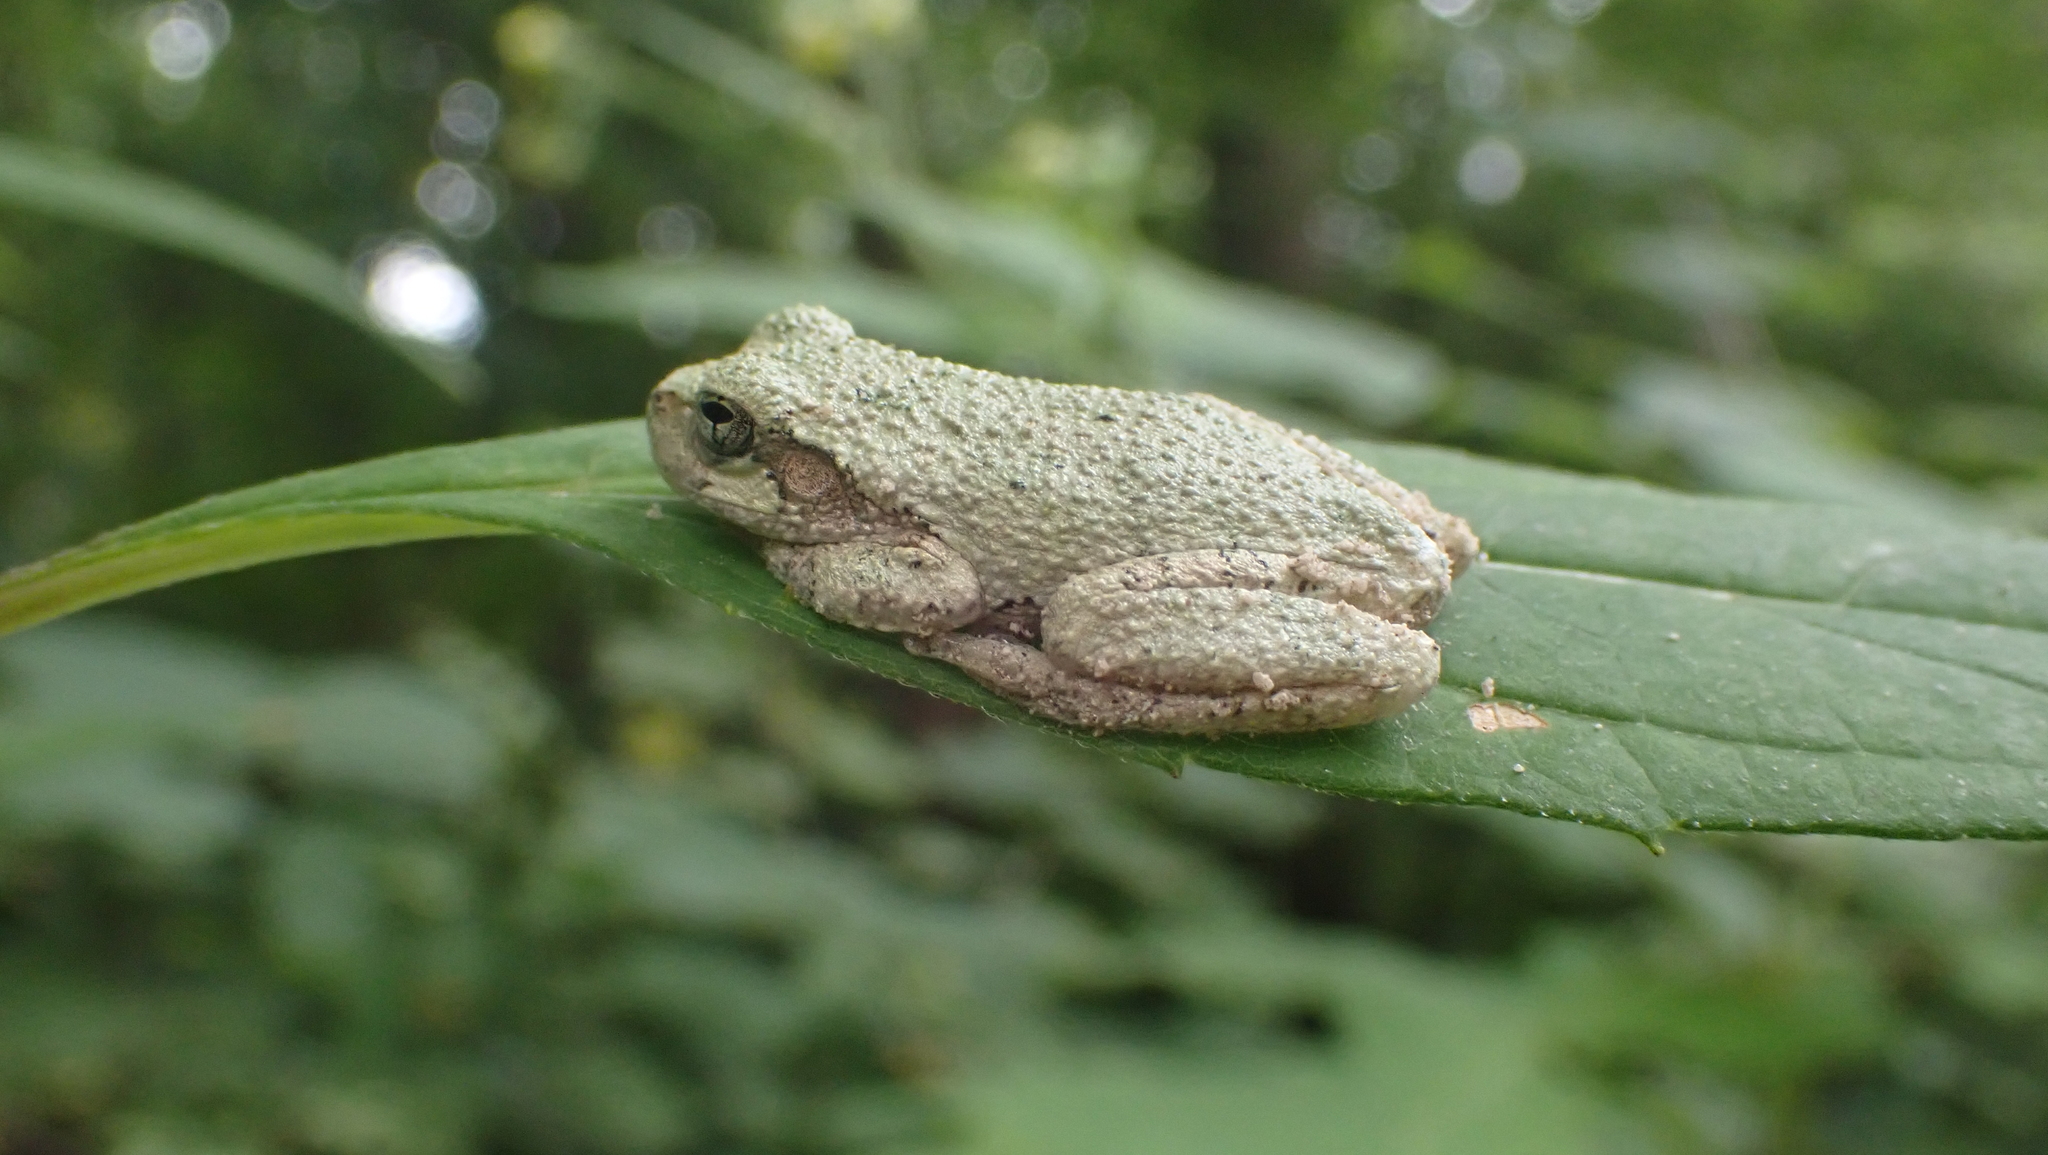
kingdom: Animalia
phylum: Chordata
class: Amphibia
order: Anura
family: Hylidae
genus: Dryophytes
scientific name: Dryophytes chrysoscelis
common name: Cope's gray treefrog
